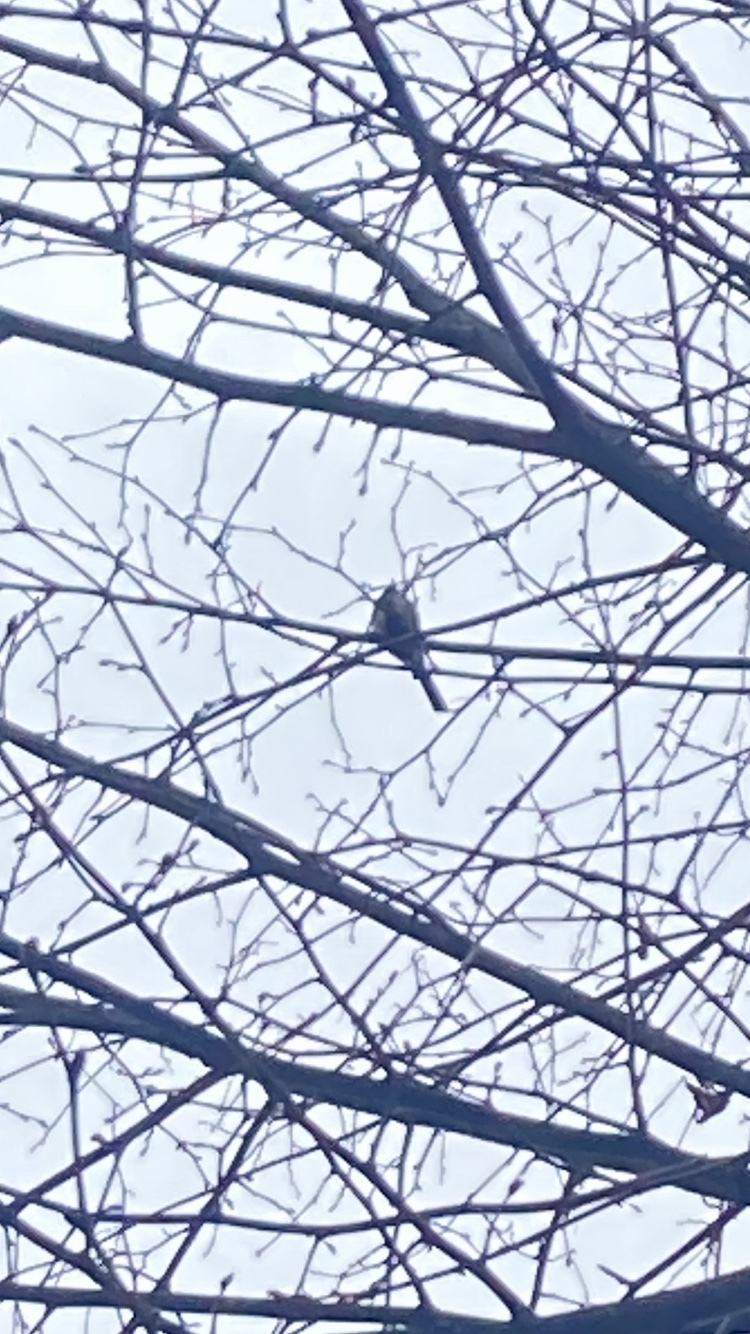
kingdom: Animalia
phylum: Chordata
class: Aves
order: Passeriformes
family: Aegithalidae
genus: Aegithalos
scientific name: Aegithalos caudatus
